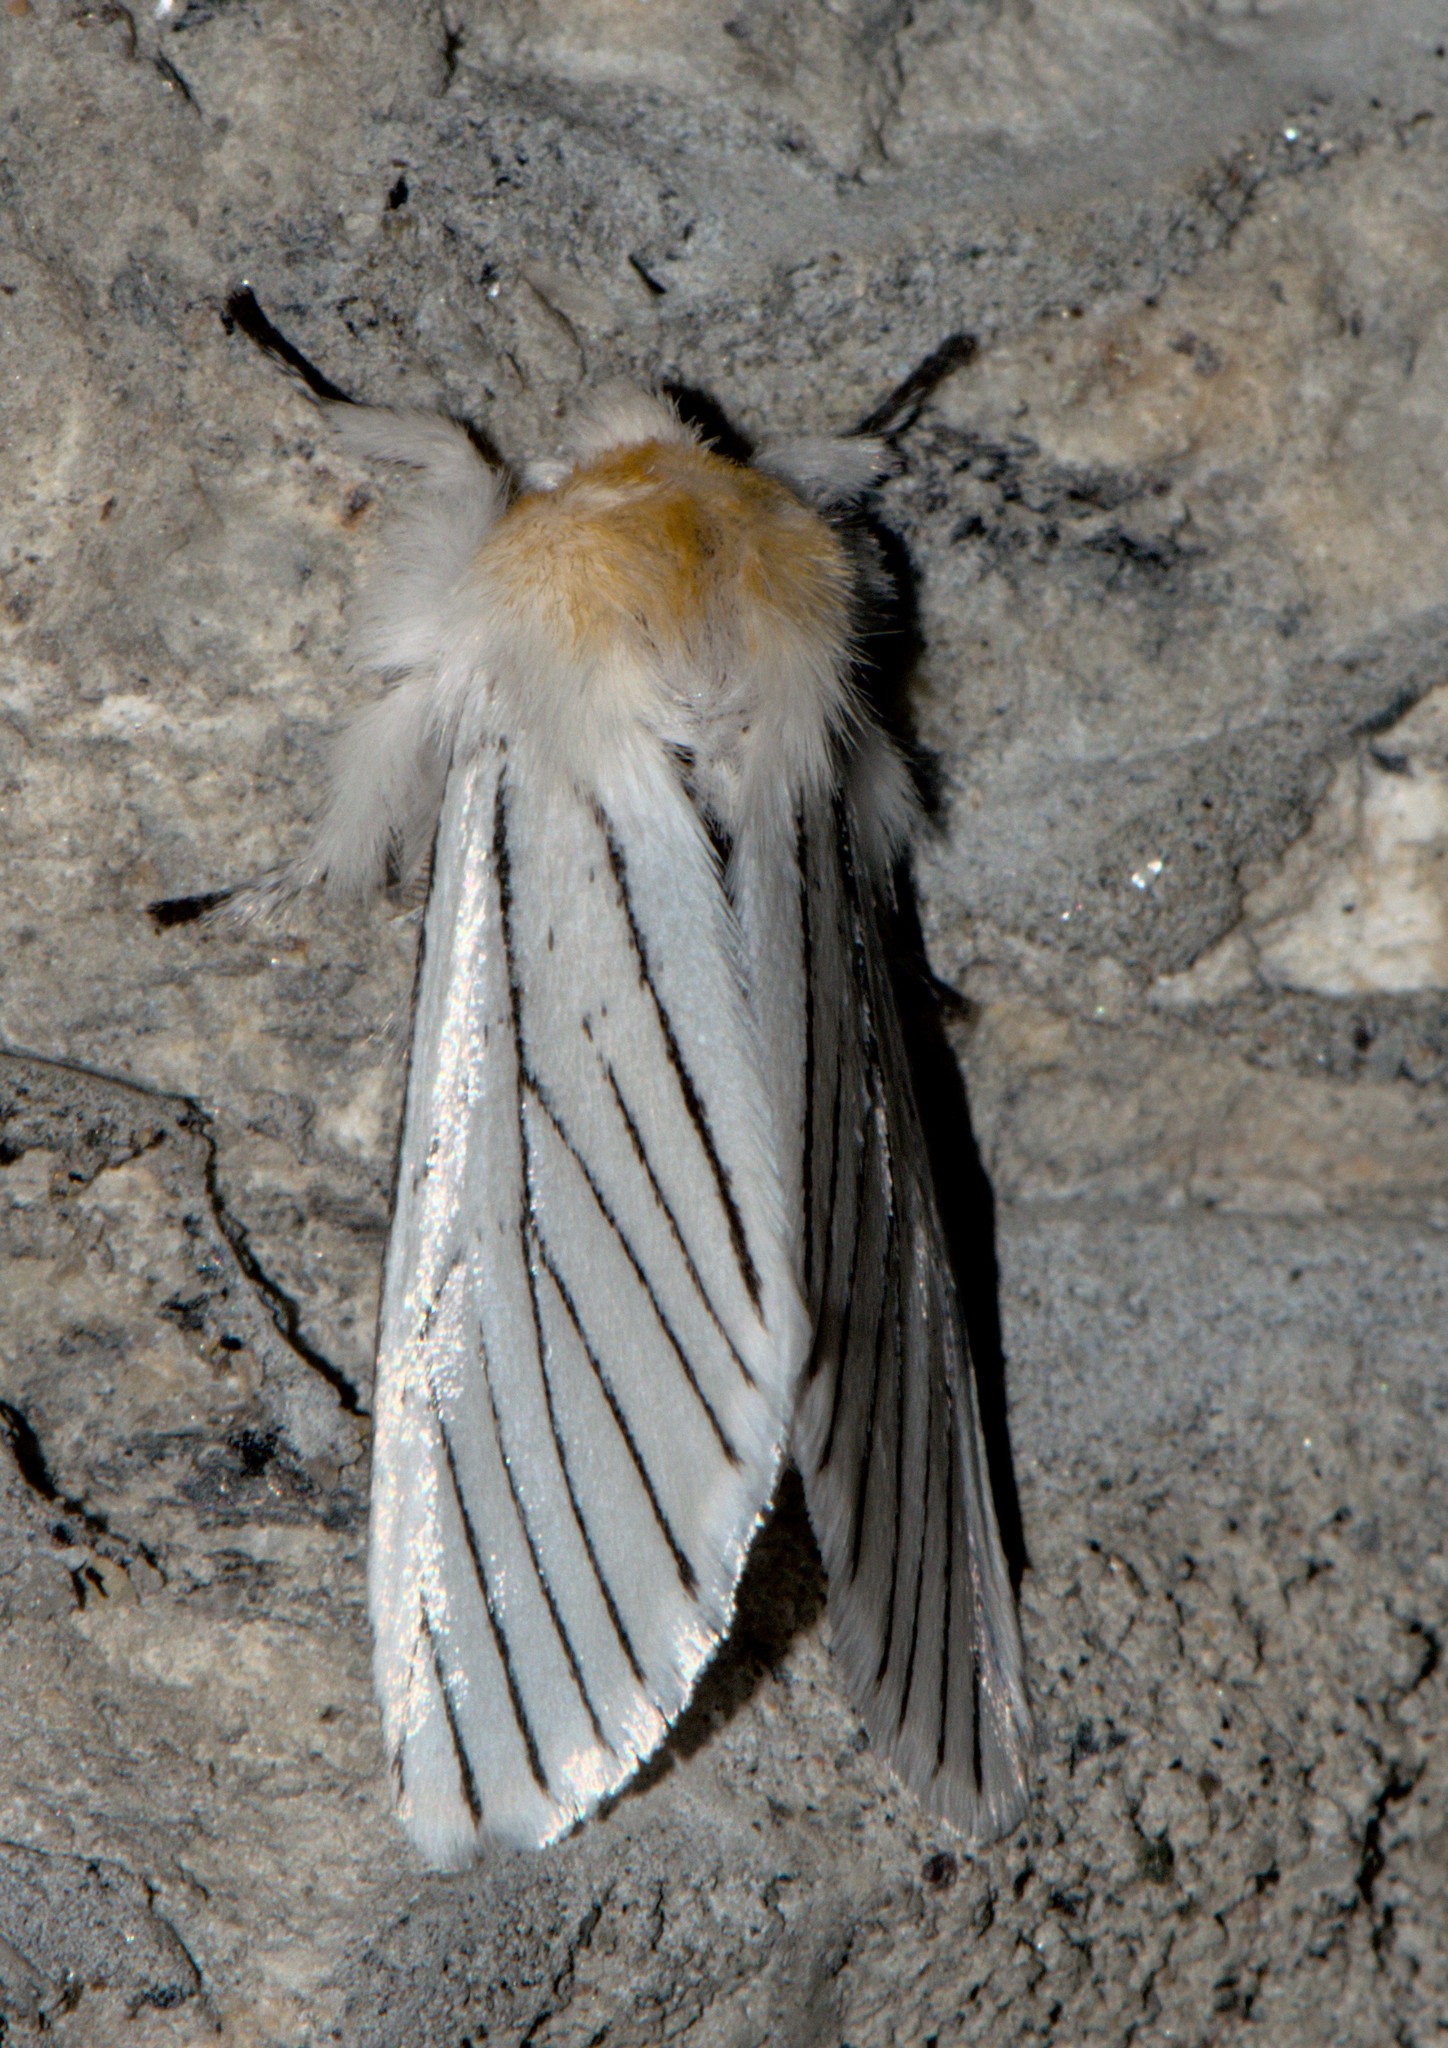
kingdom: Animalia
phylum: Arthropoda
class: Insecta
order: Lepidoptera
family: Notodontidae
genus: Oligoclona
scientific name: Oligoclona chrysolopha
